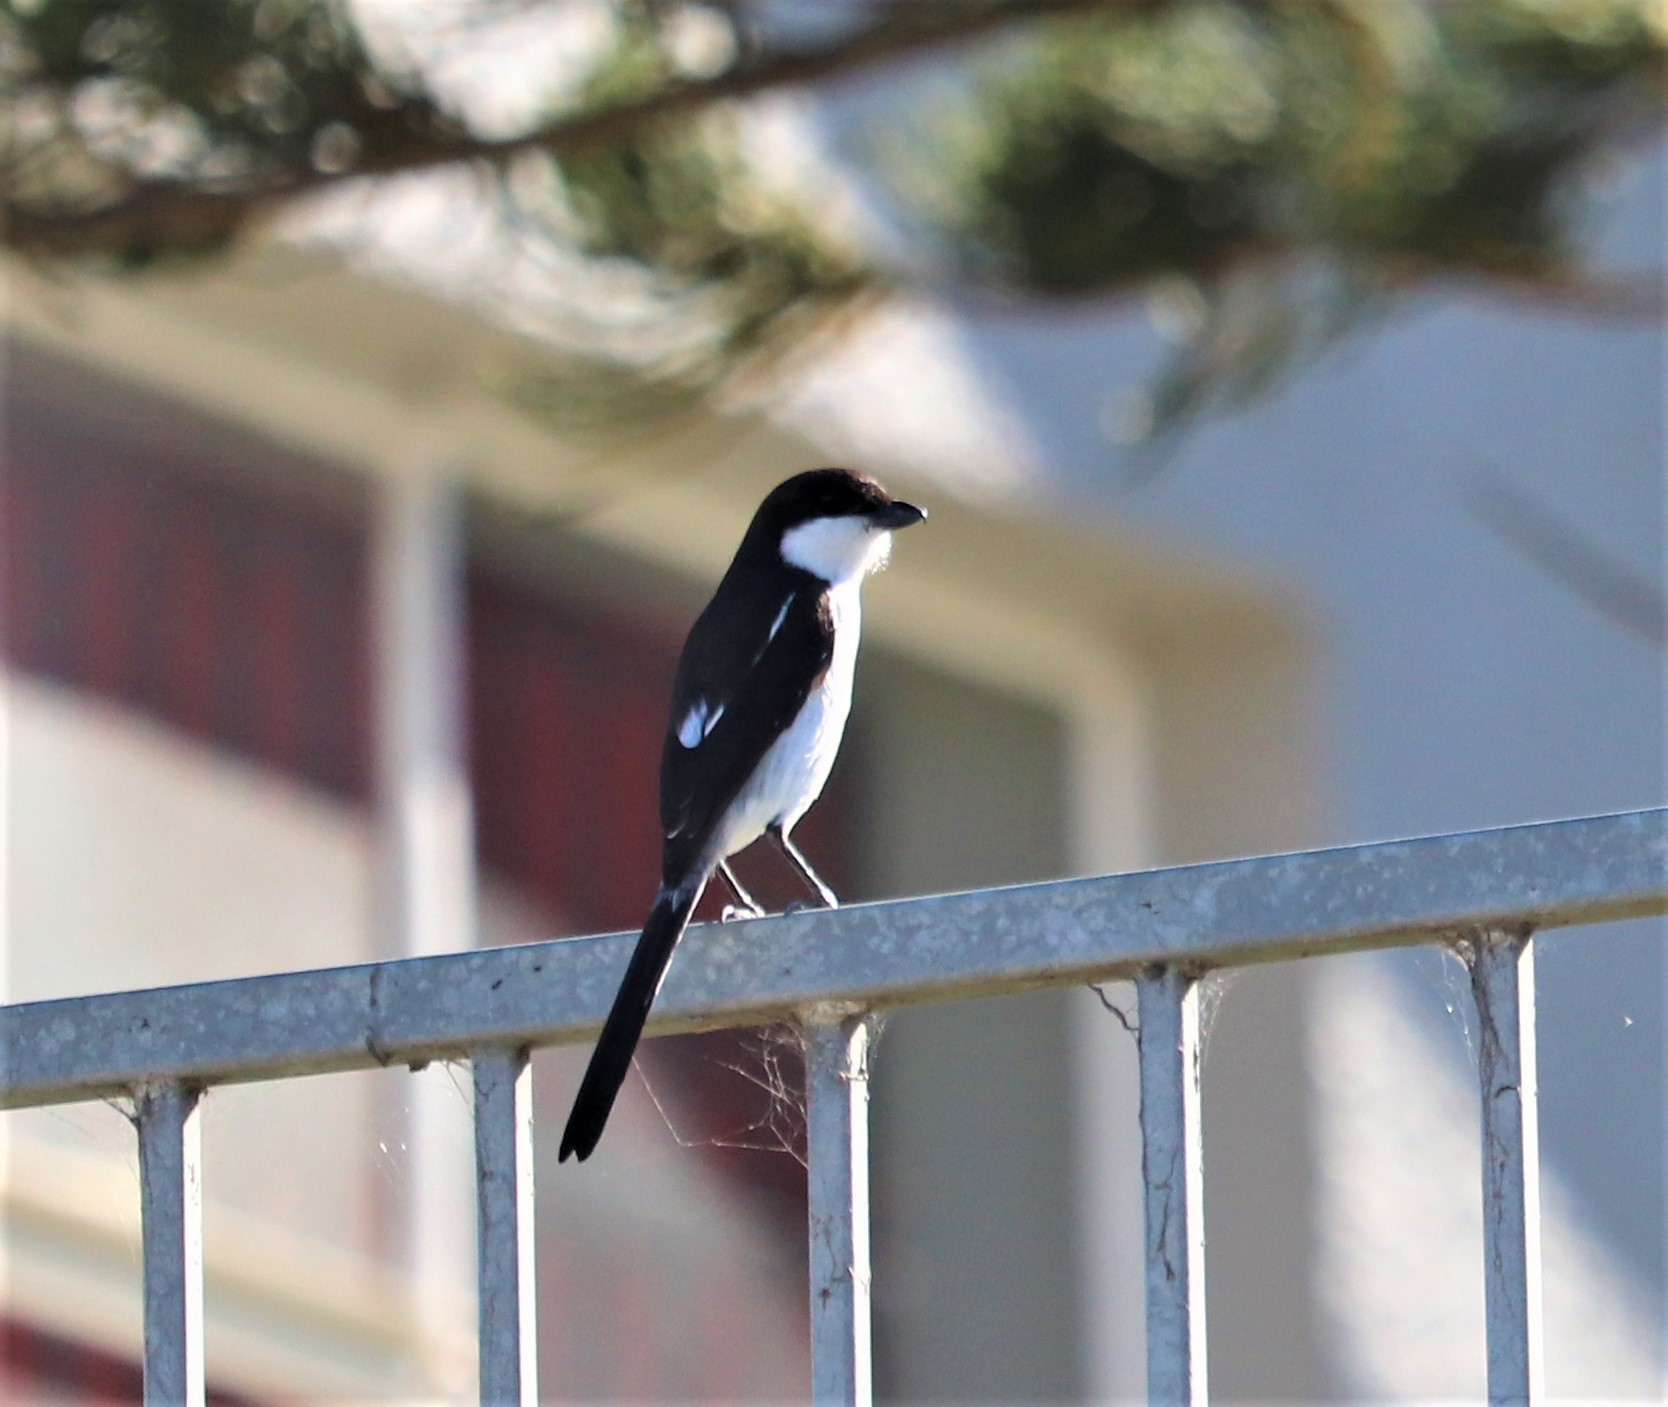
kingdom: Animalia
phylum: Chordata
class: Aves
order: Passeriformes
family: Laniidae
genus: Lanius
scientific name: Lanius collaris
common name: Southern fiscal
